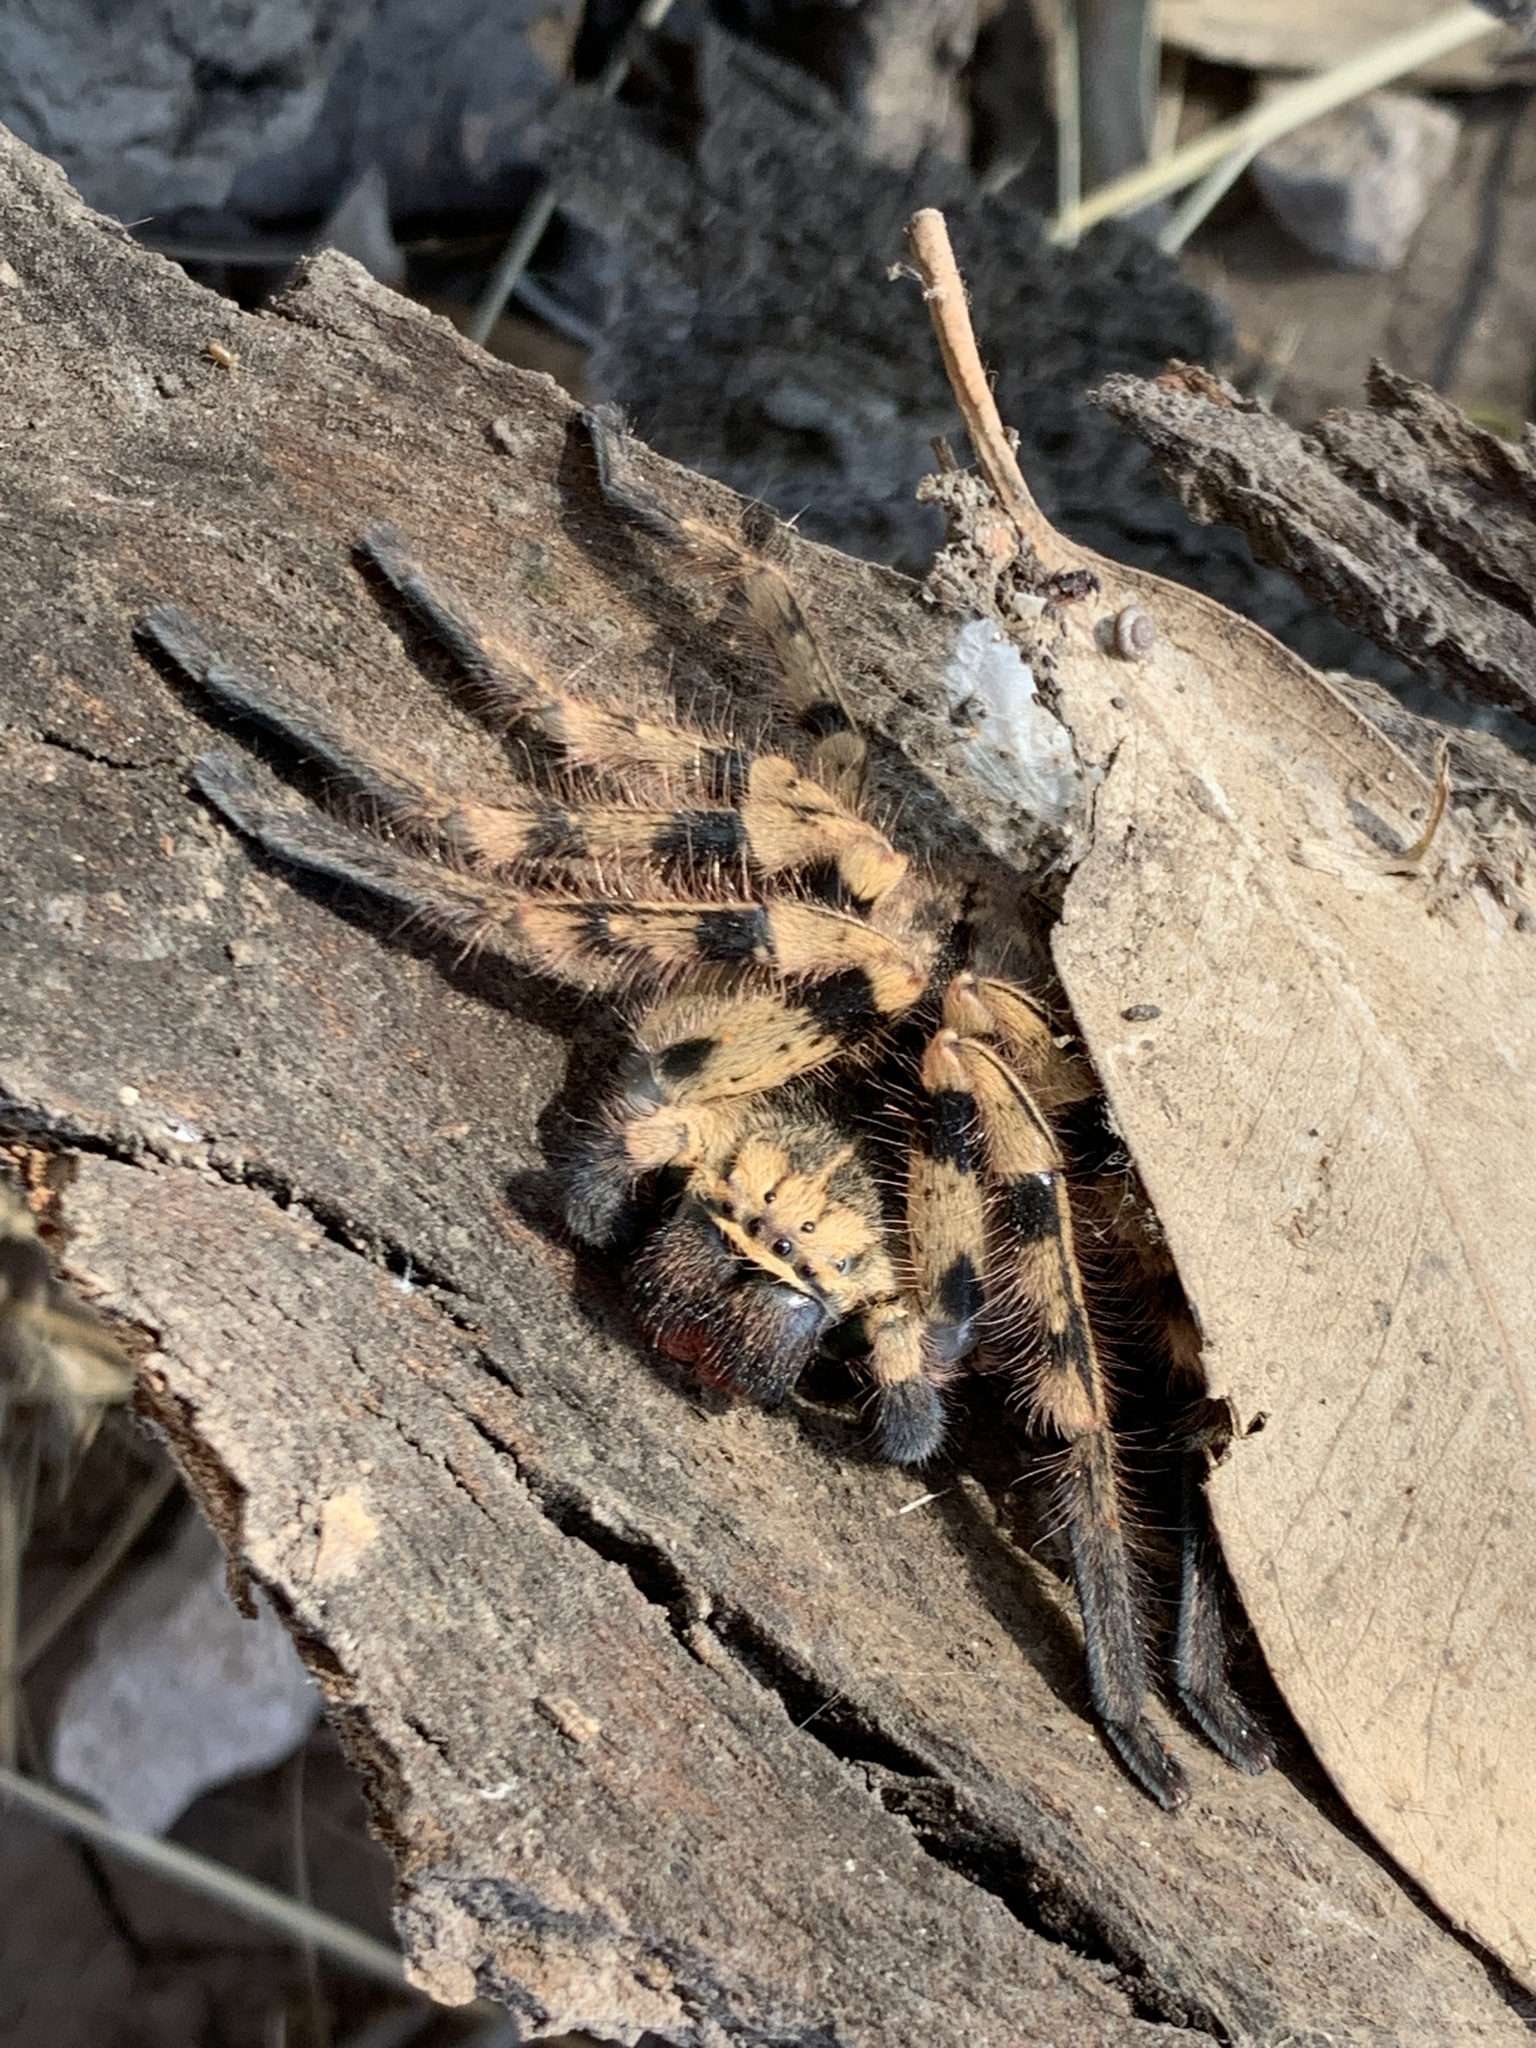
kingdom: Animalia
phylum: Arthropoda
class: Arachnida
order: Araneae
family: Sparassidae
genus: Polybetes
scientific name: Polybetes pythagoricus
